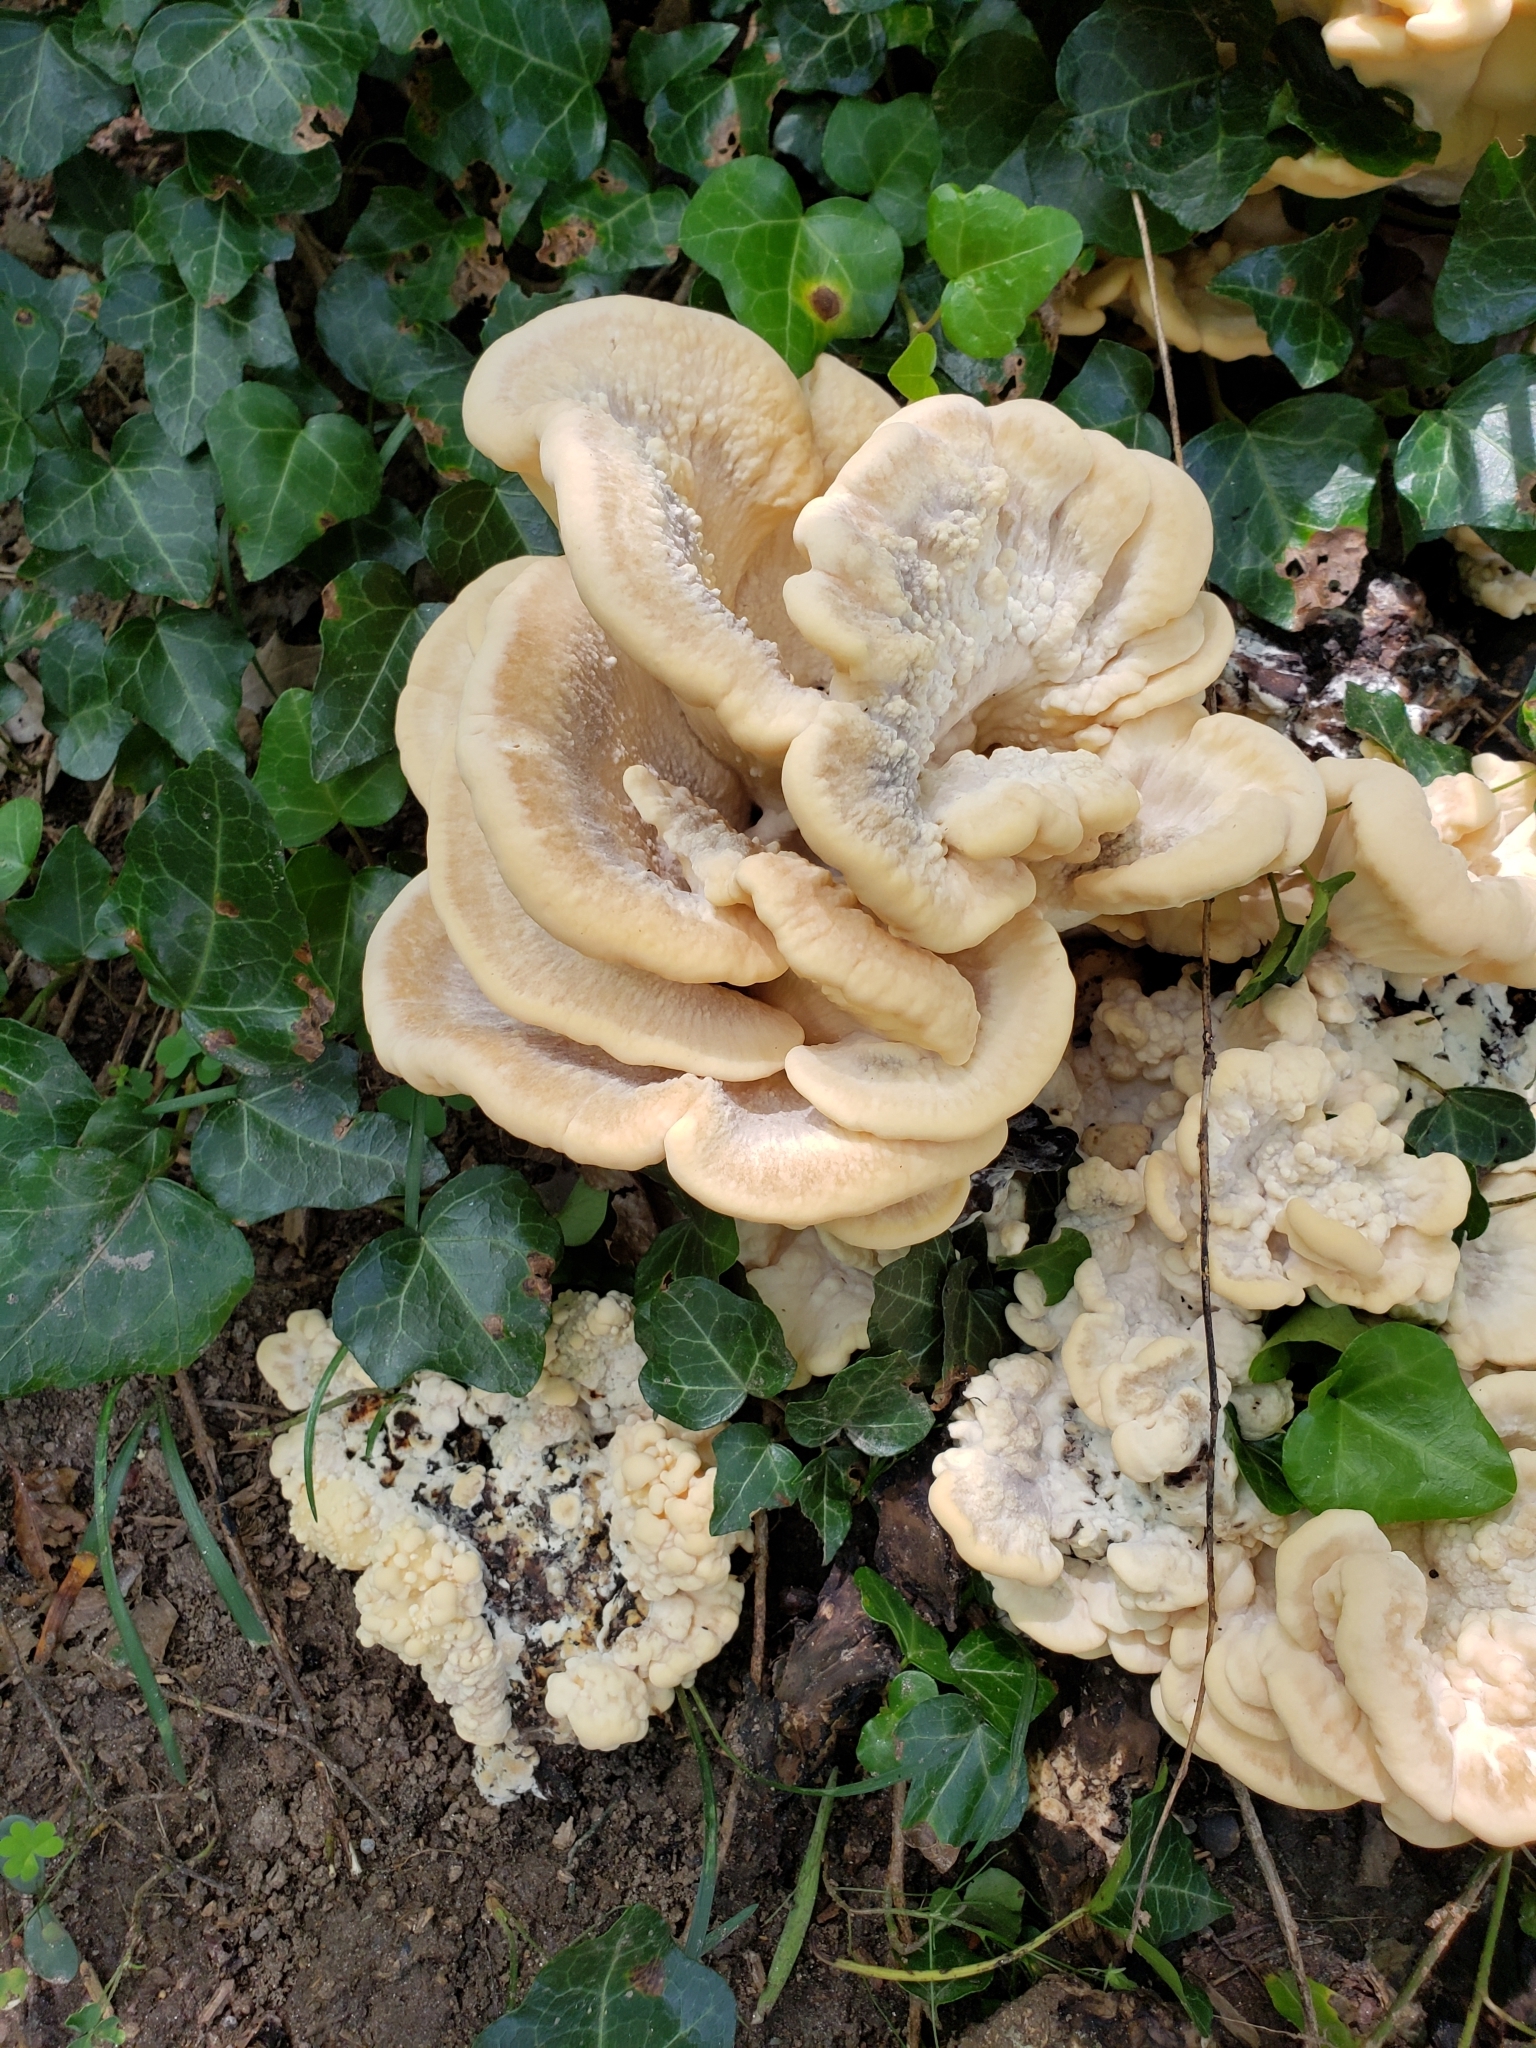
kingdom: Fungi
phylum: Basidiomycota
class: Agaricomycetes
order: Polyporales
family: Meripilaceae
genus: Meripilus
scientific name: Meripilus sumstinei
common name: Black-staining polypore
